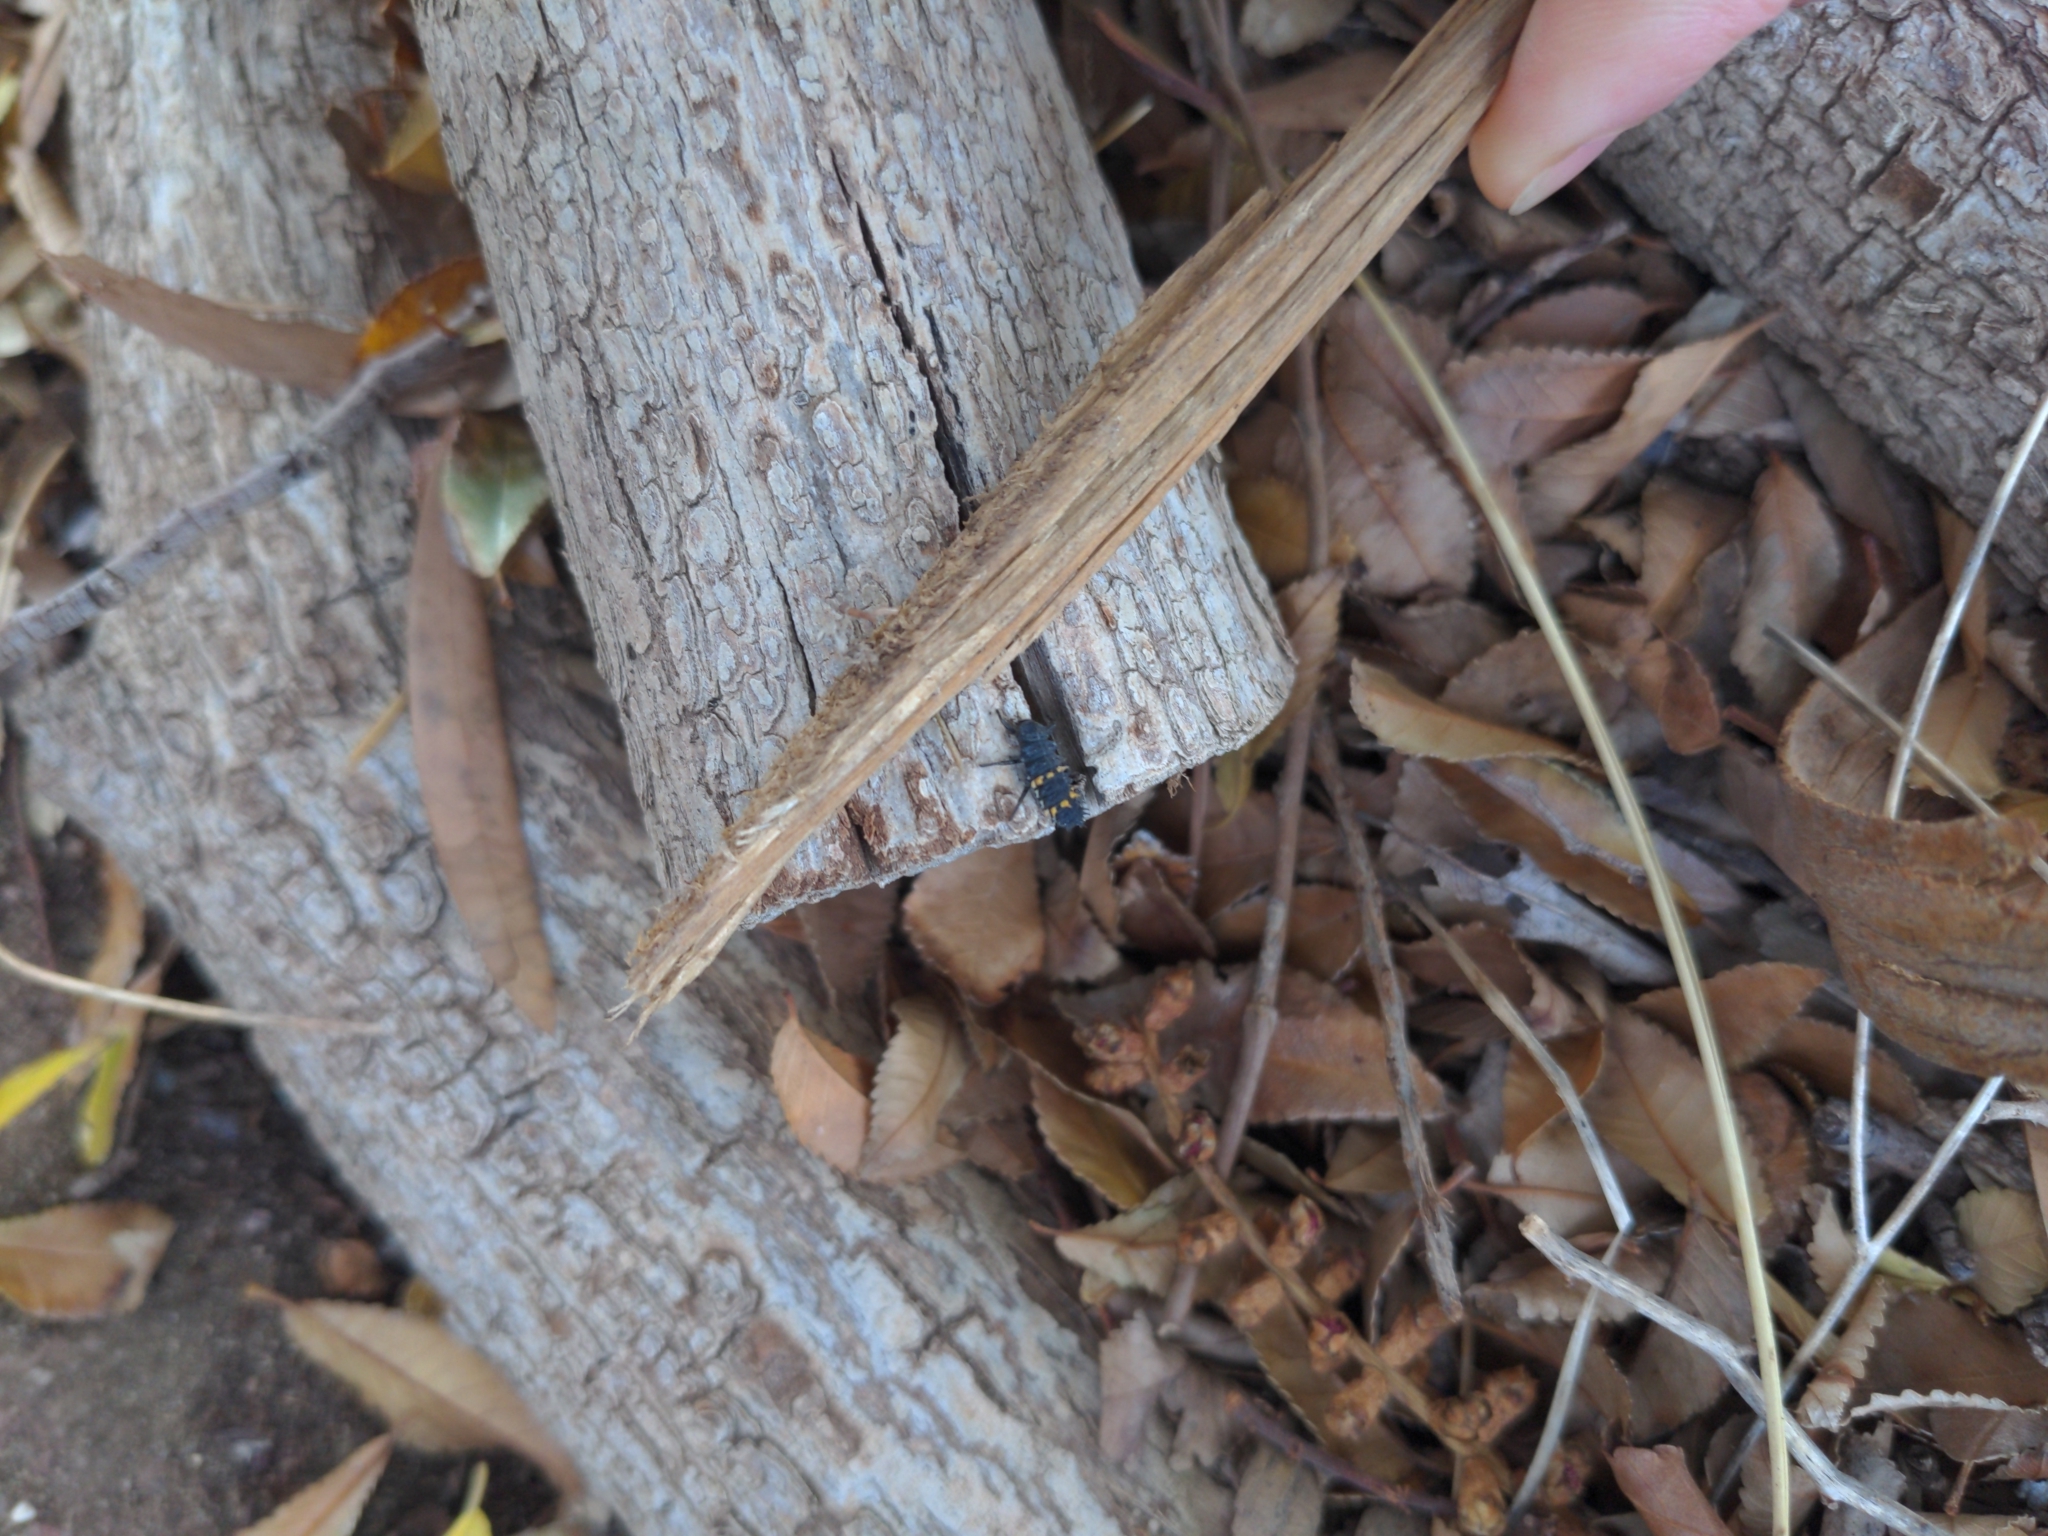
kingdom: Animalia
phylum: Arthropoda
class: Insecta
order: Coleoptera
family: Coccinellidae
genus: Harmonia
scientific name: Harmonia conformis
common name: Common spotted ladybird beetle
